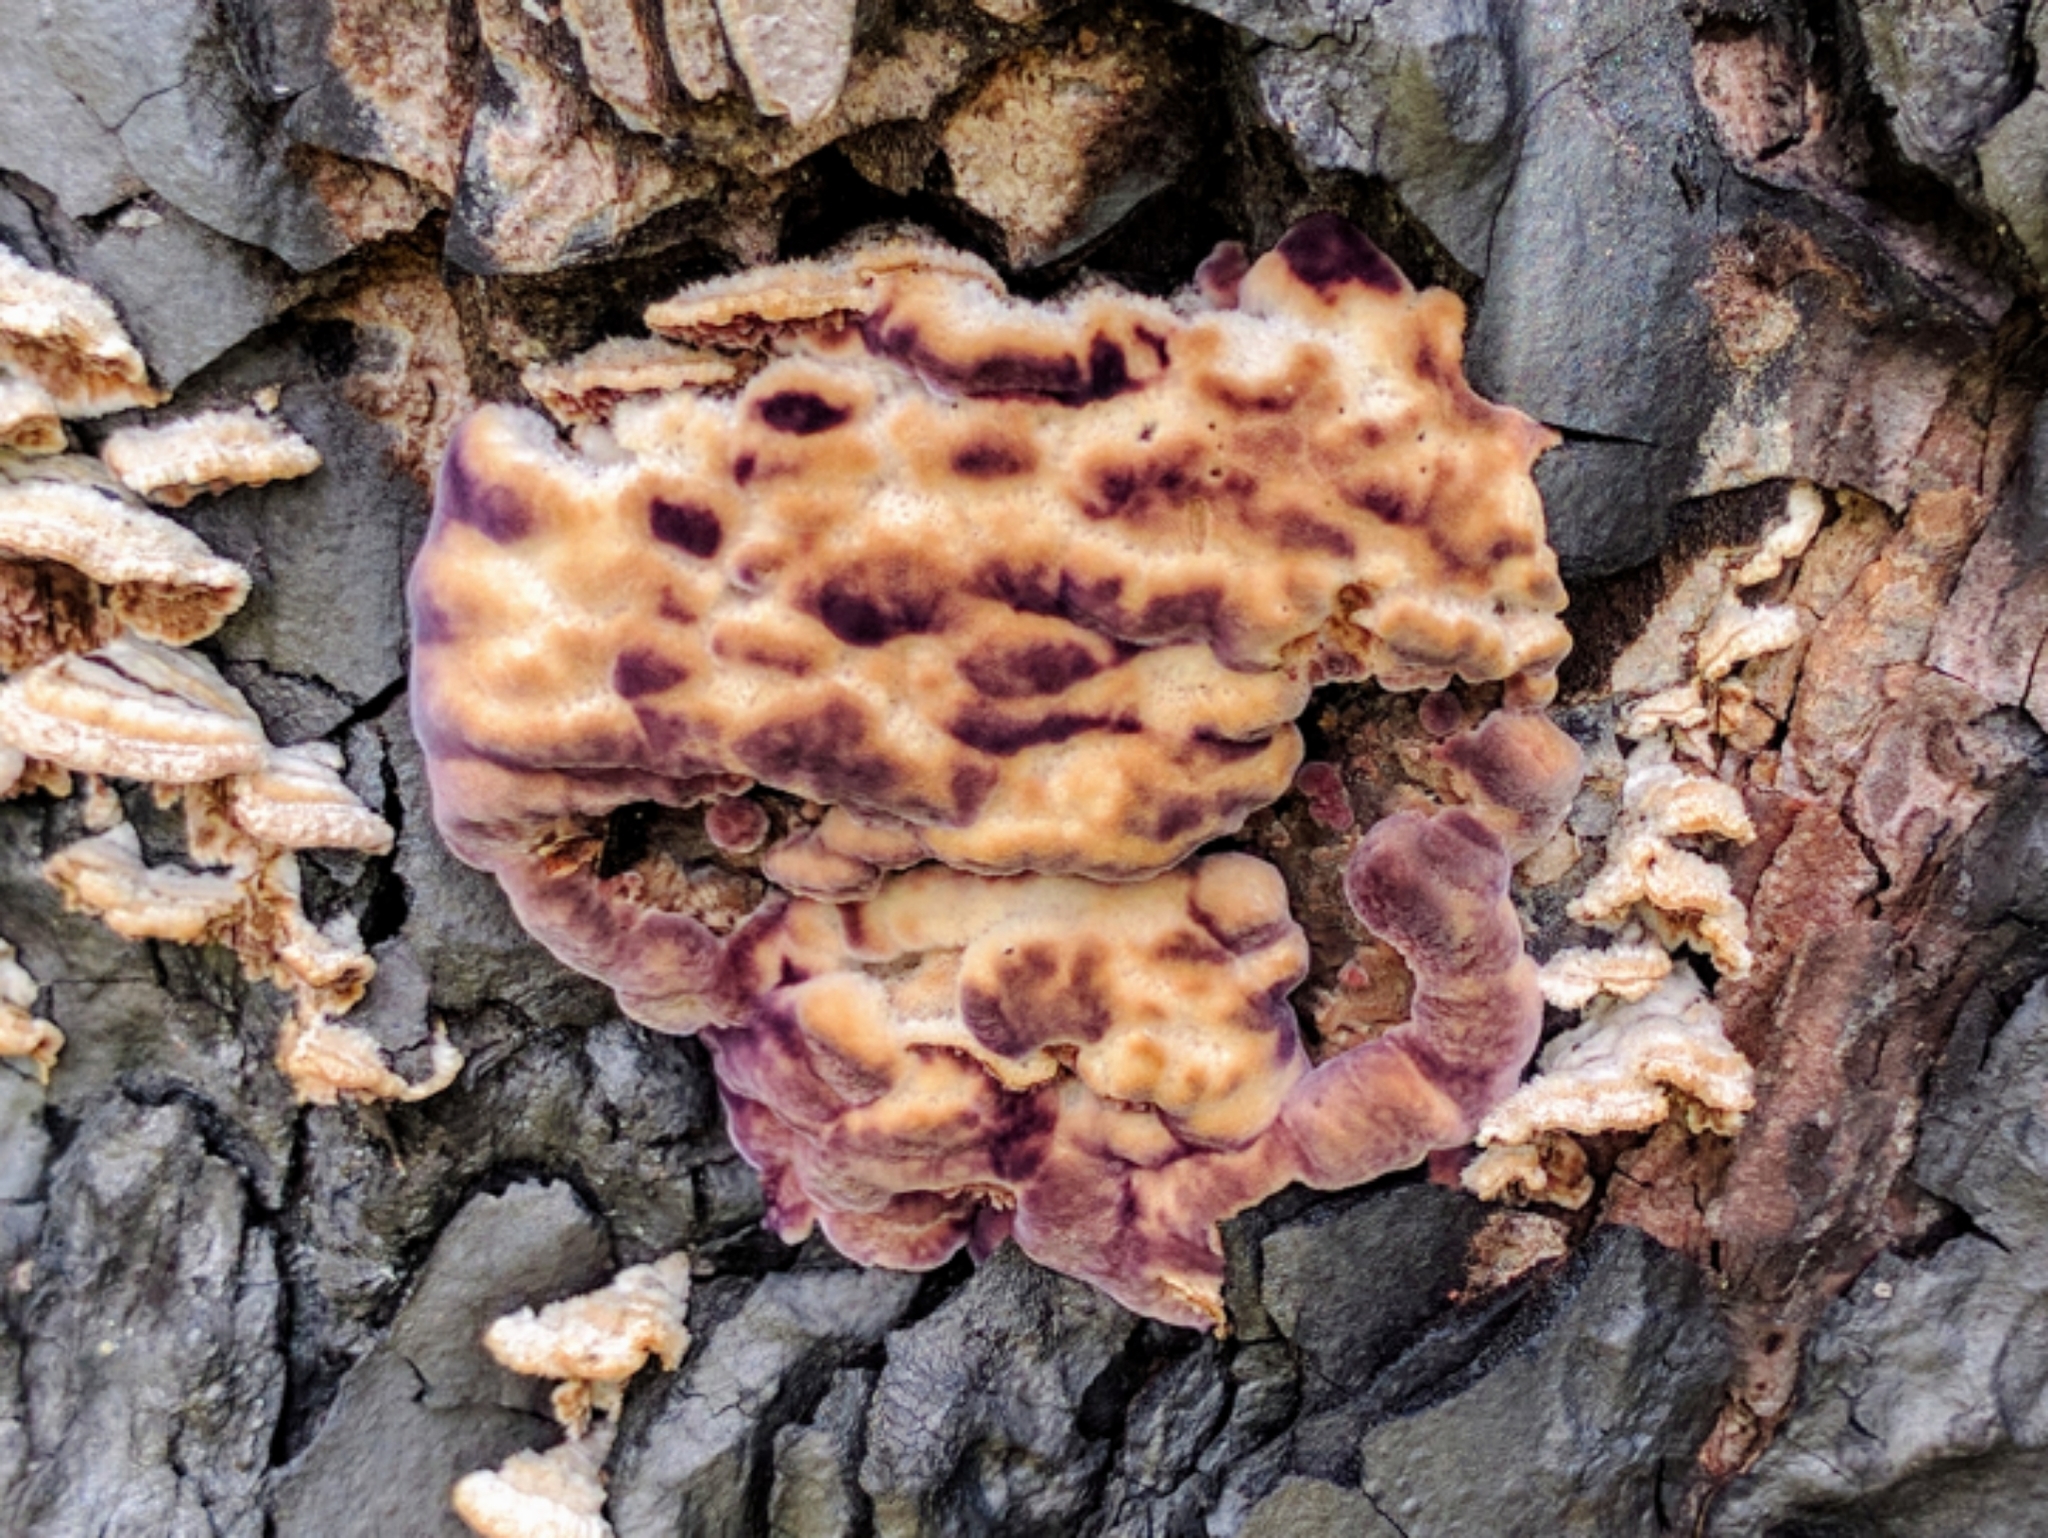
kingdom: Fungi
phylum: Basidiomycota
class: Agaricomycetes
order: Hymenochaetales
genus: Trichaptum
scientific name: Trichaptum abietinum
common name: Purplepore bracket
